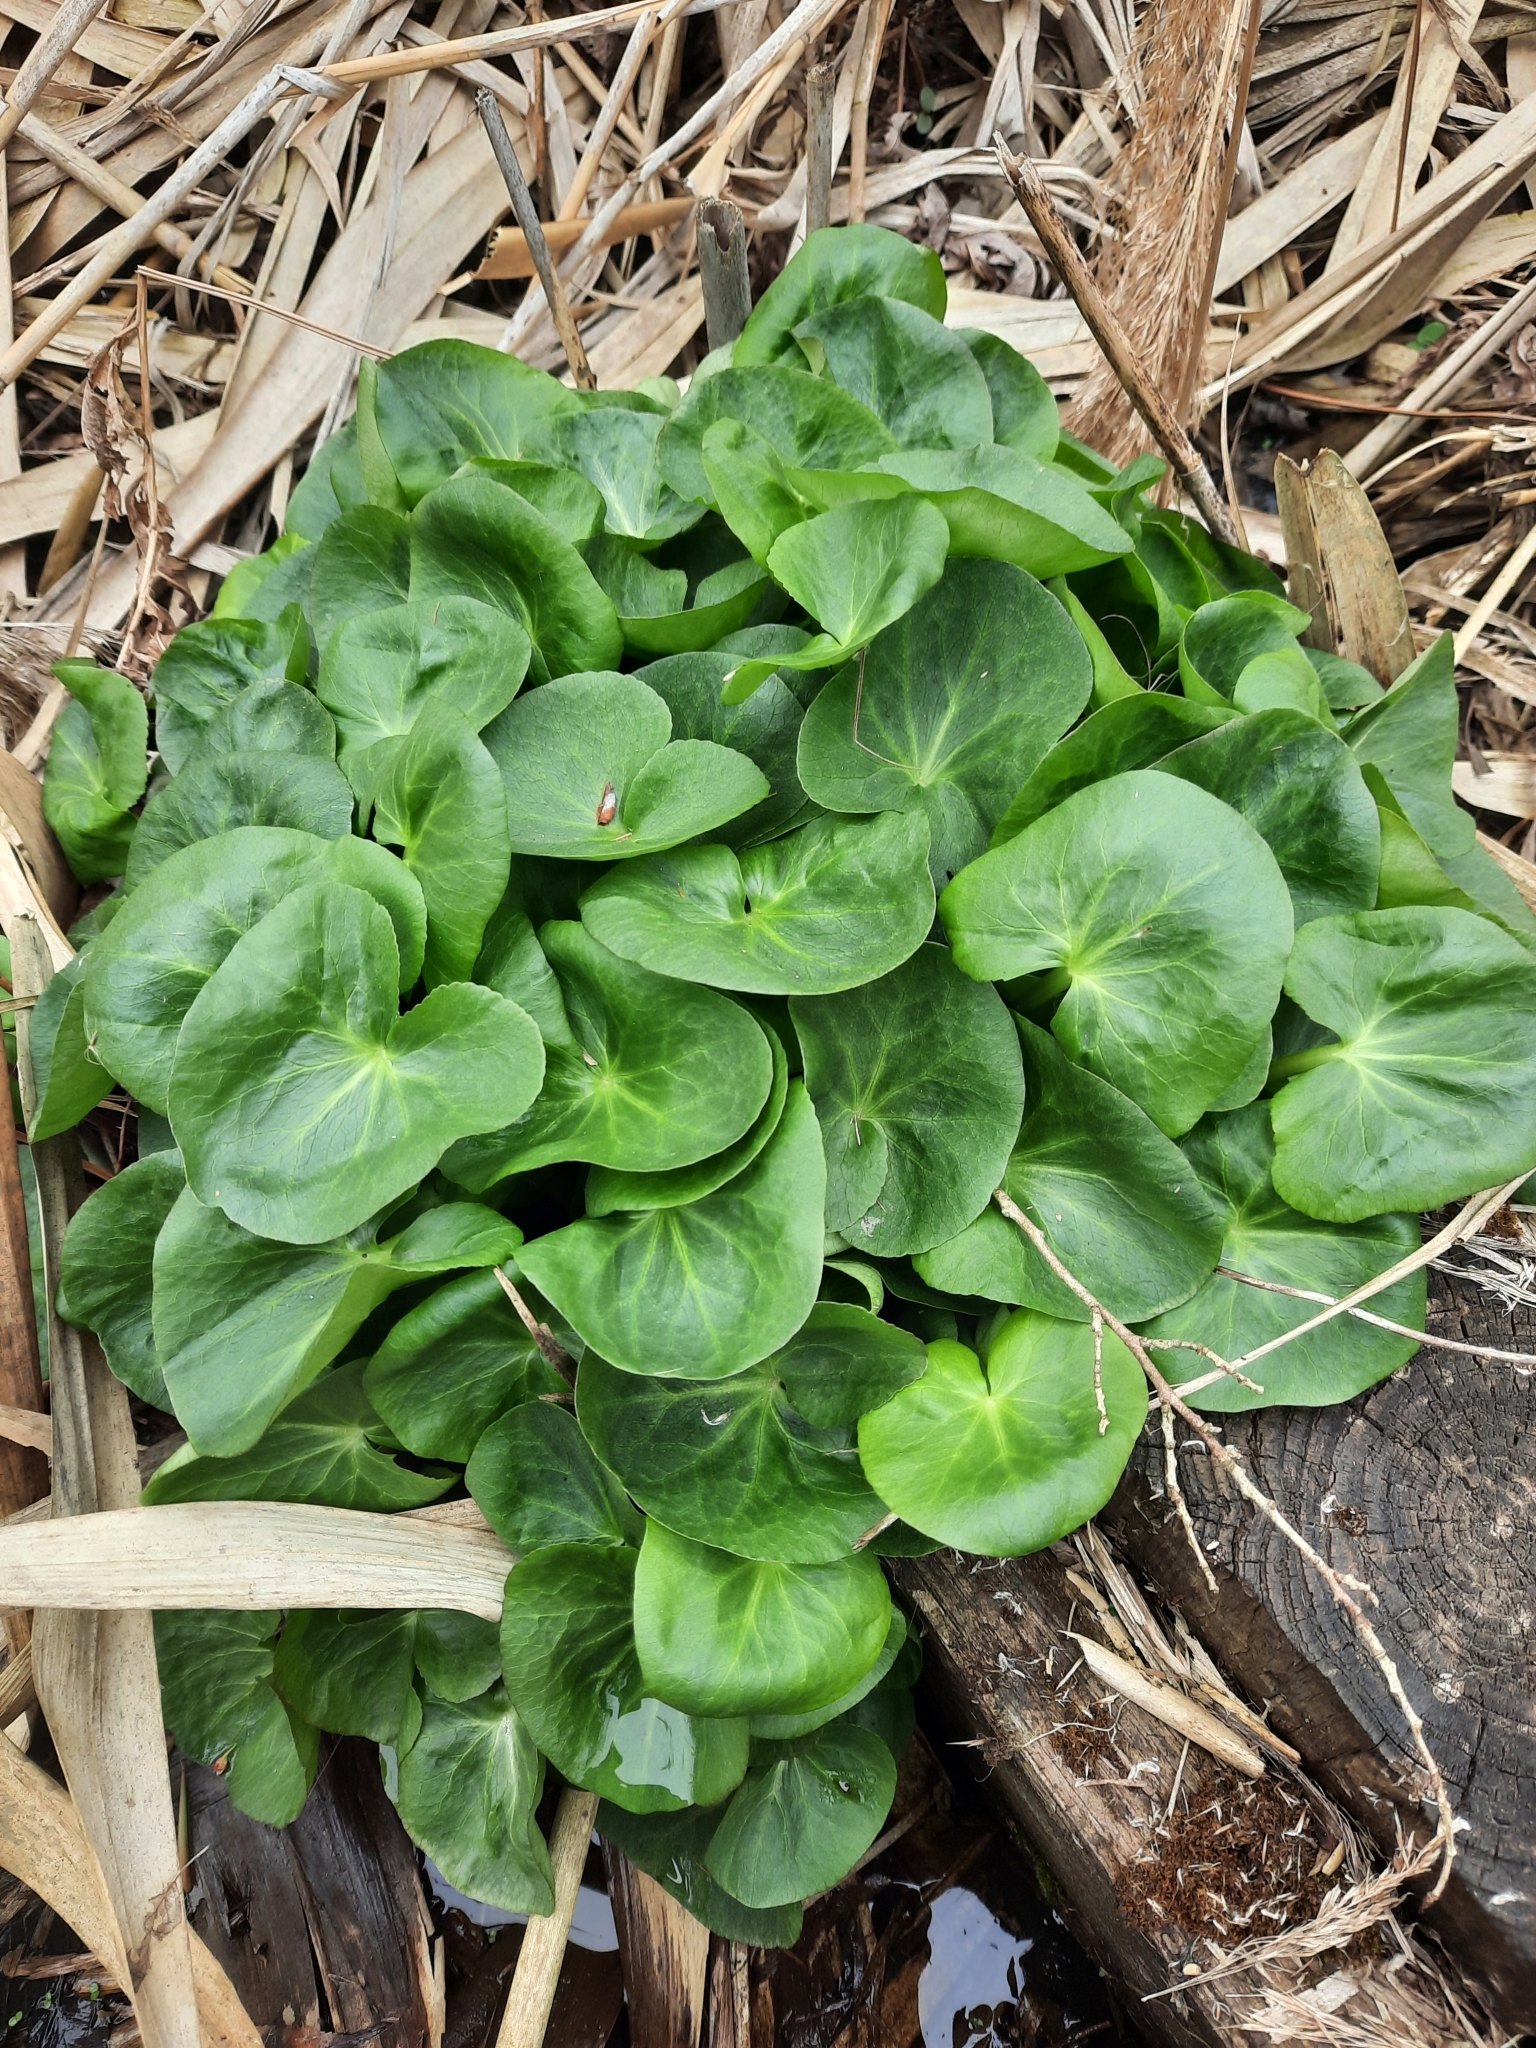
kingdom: Plantae
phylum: Tracheophyta
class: Magnoliopsida
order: Ranunculales
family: Ranunculaceae
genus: Caltha
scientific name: Caltha palustris
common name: Marsh marigold
